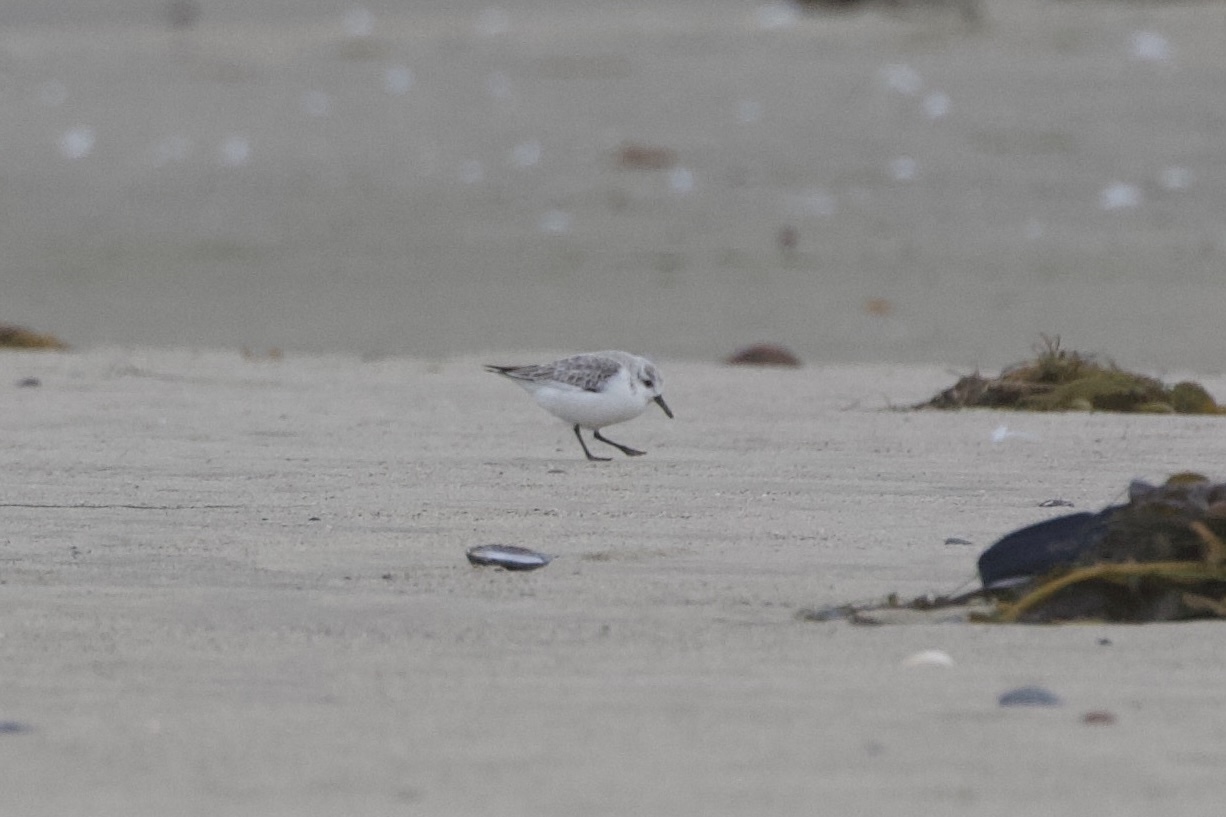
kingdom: Animalia
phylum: Chordata
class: Aves
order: Charadriiformes
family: Scolopacidae
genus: Calidris
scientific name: Calidris alba
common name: Sanderling
